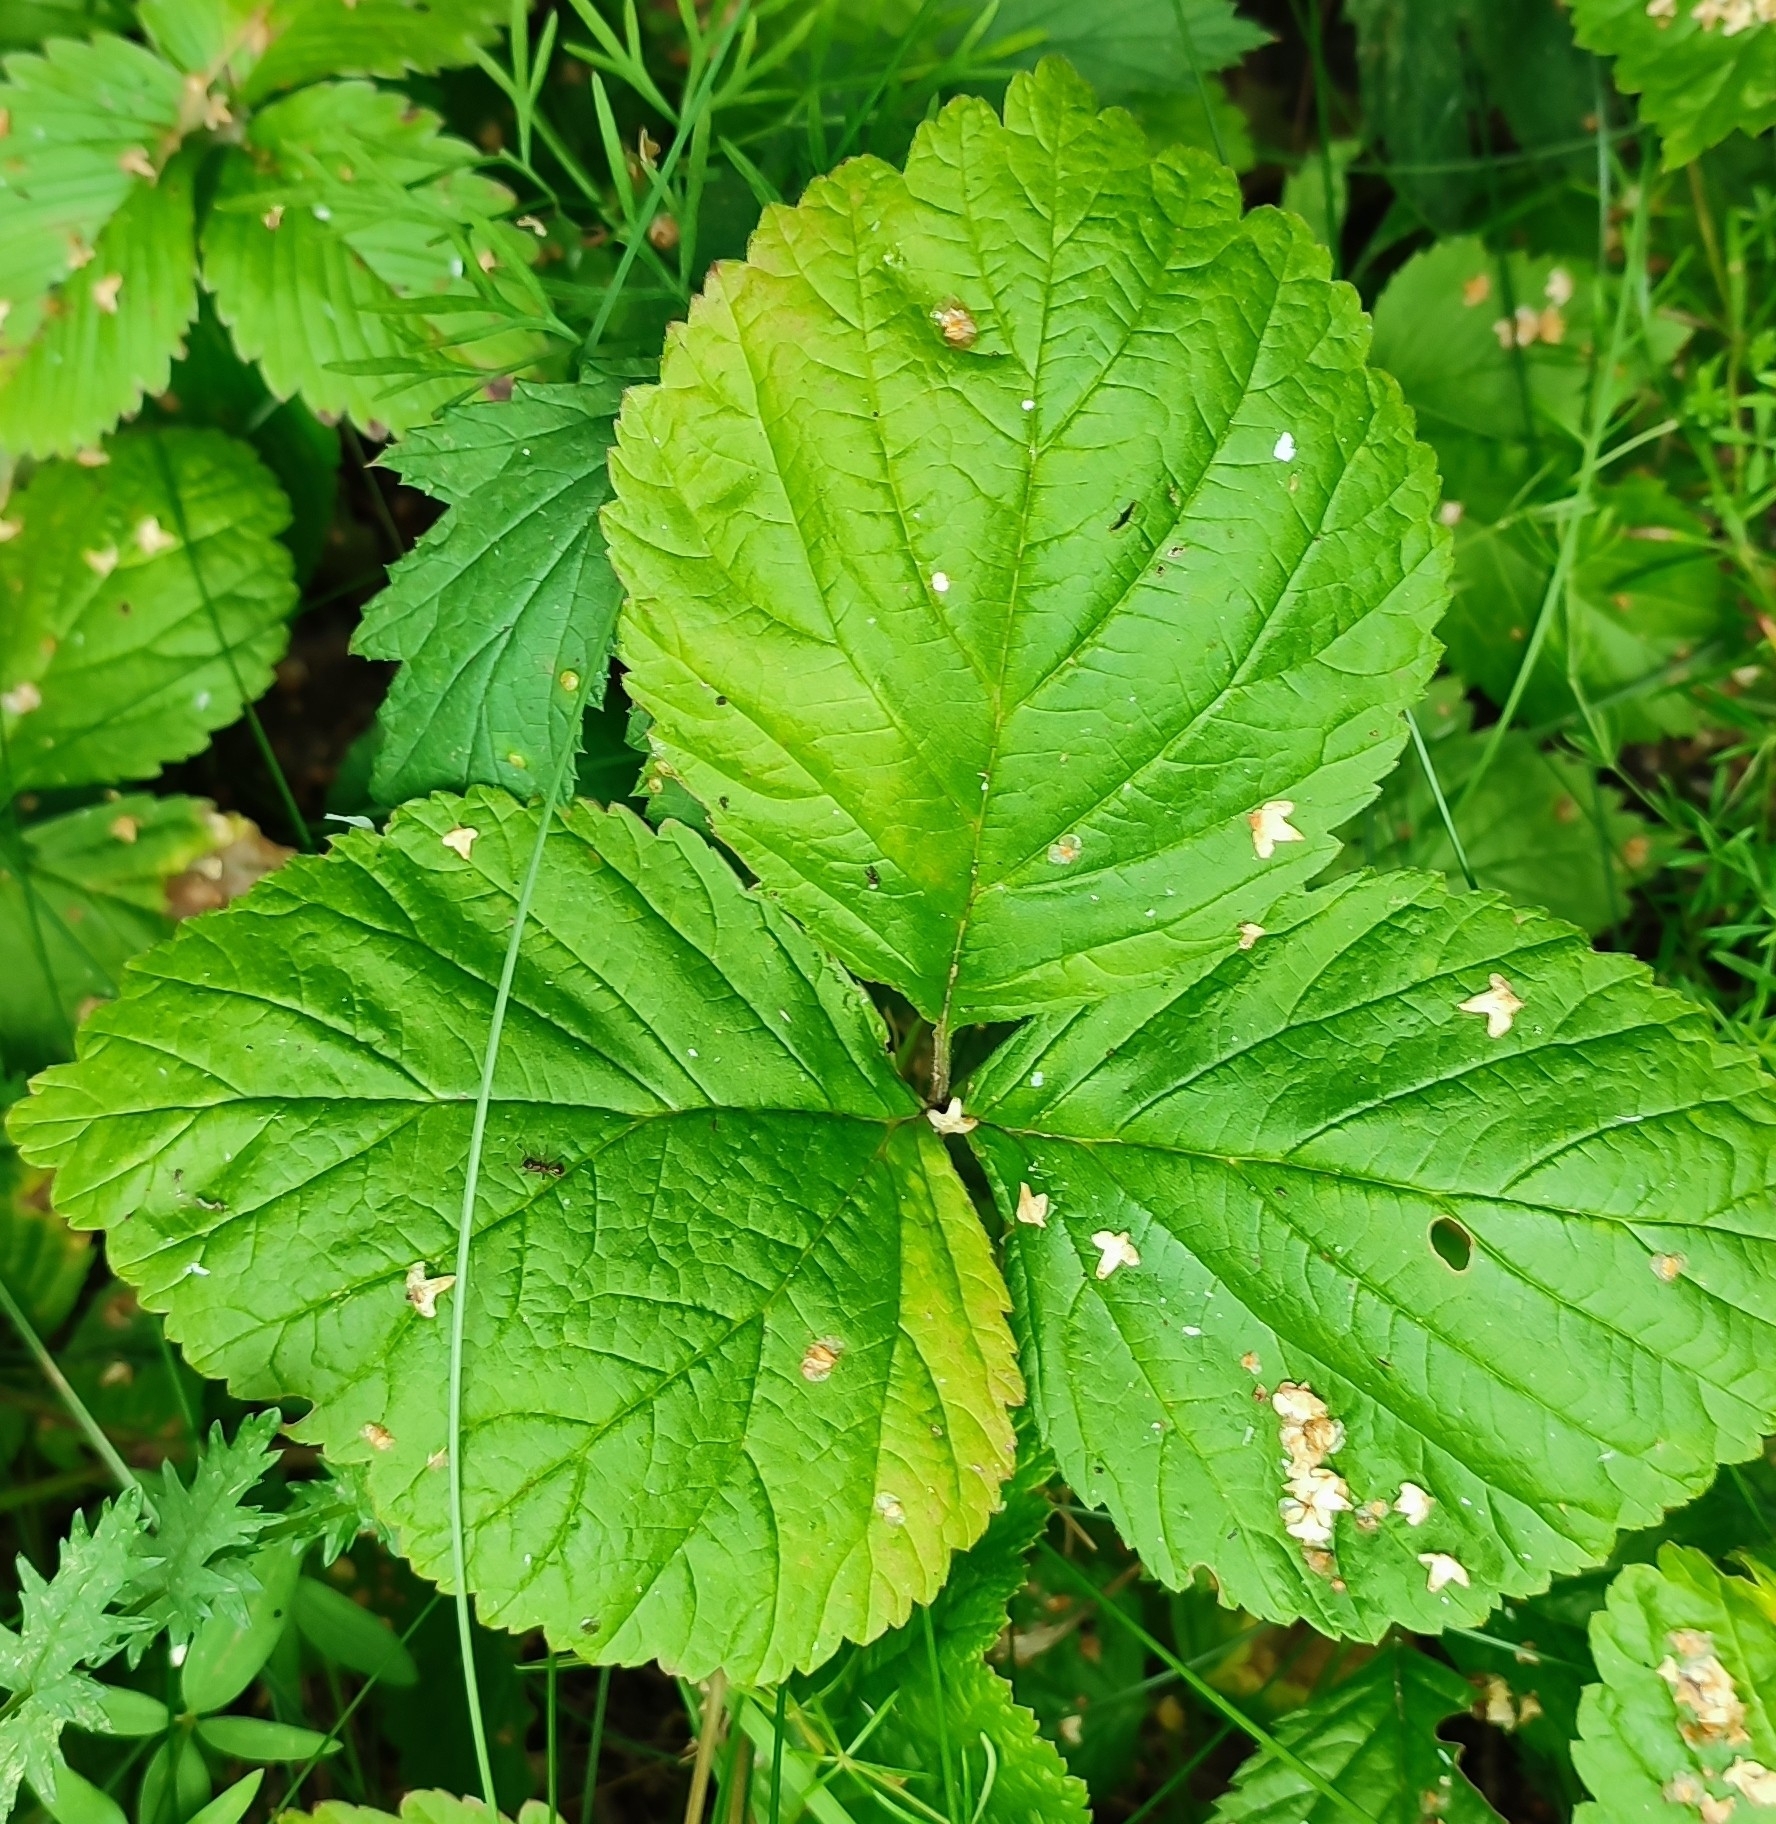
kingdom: Plantae
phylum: Tracheophyta
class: Magnoliopsida
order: Rosales
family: Rosaceae
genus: Rubus
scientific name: Rubus saxatilis
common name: Stone bramble
